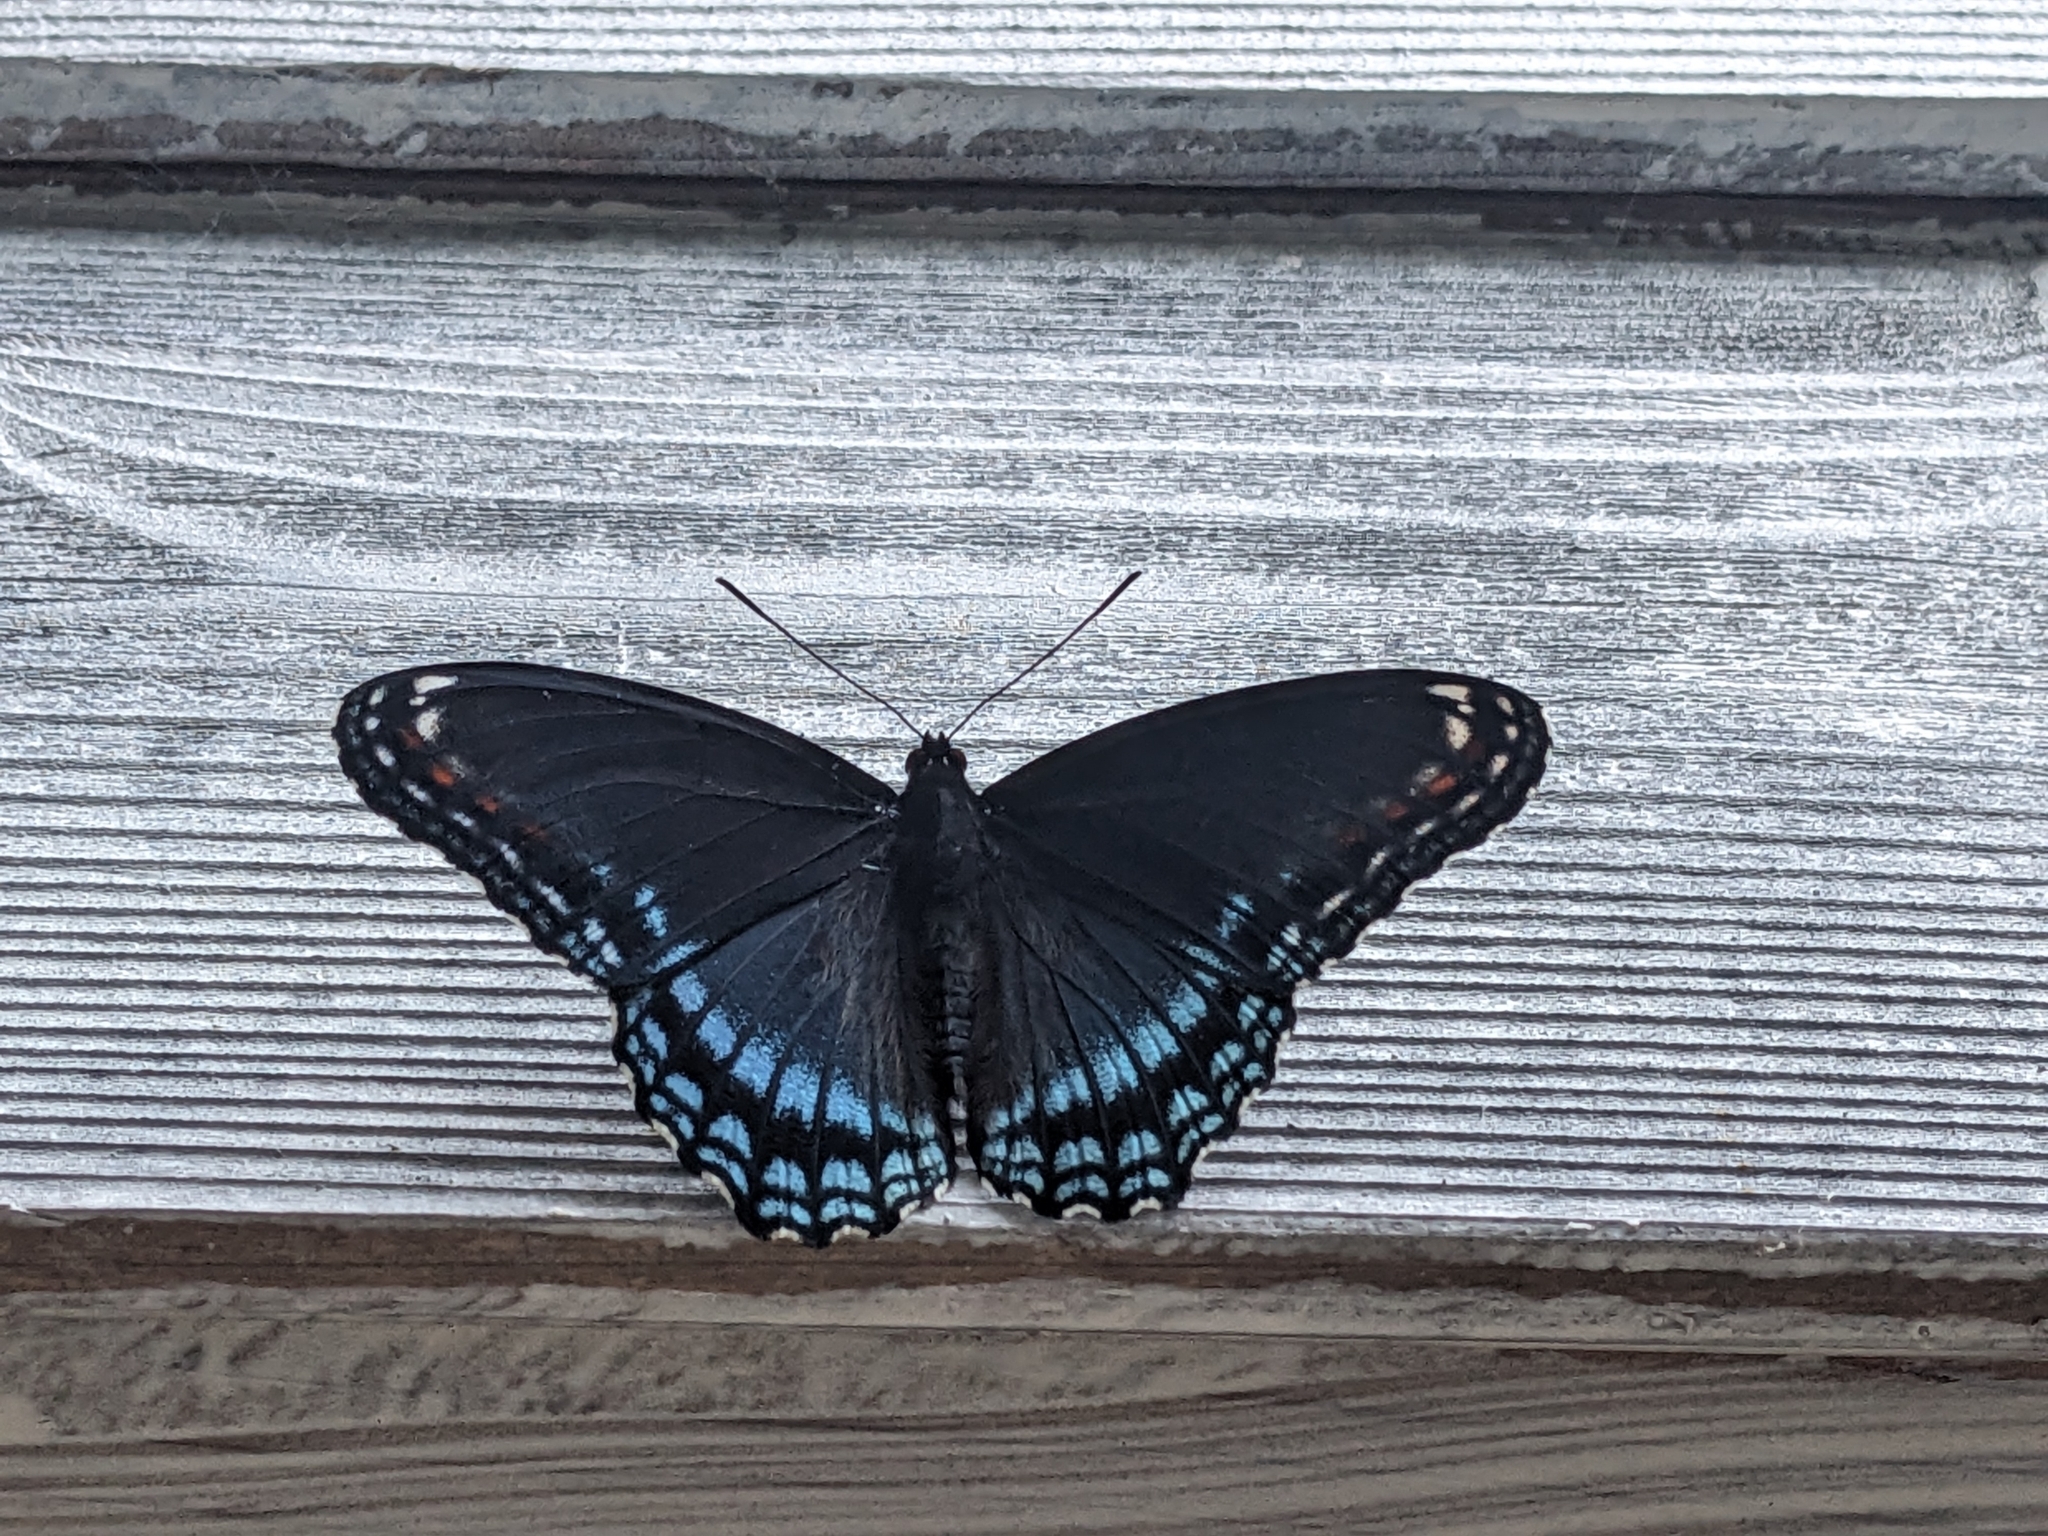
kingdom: Animalia
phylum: Arthropoda
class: Insecta
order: Lepidoptera
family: Nymphalidae
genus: Limenitis
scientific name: Limenitis astyanax
